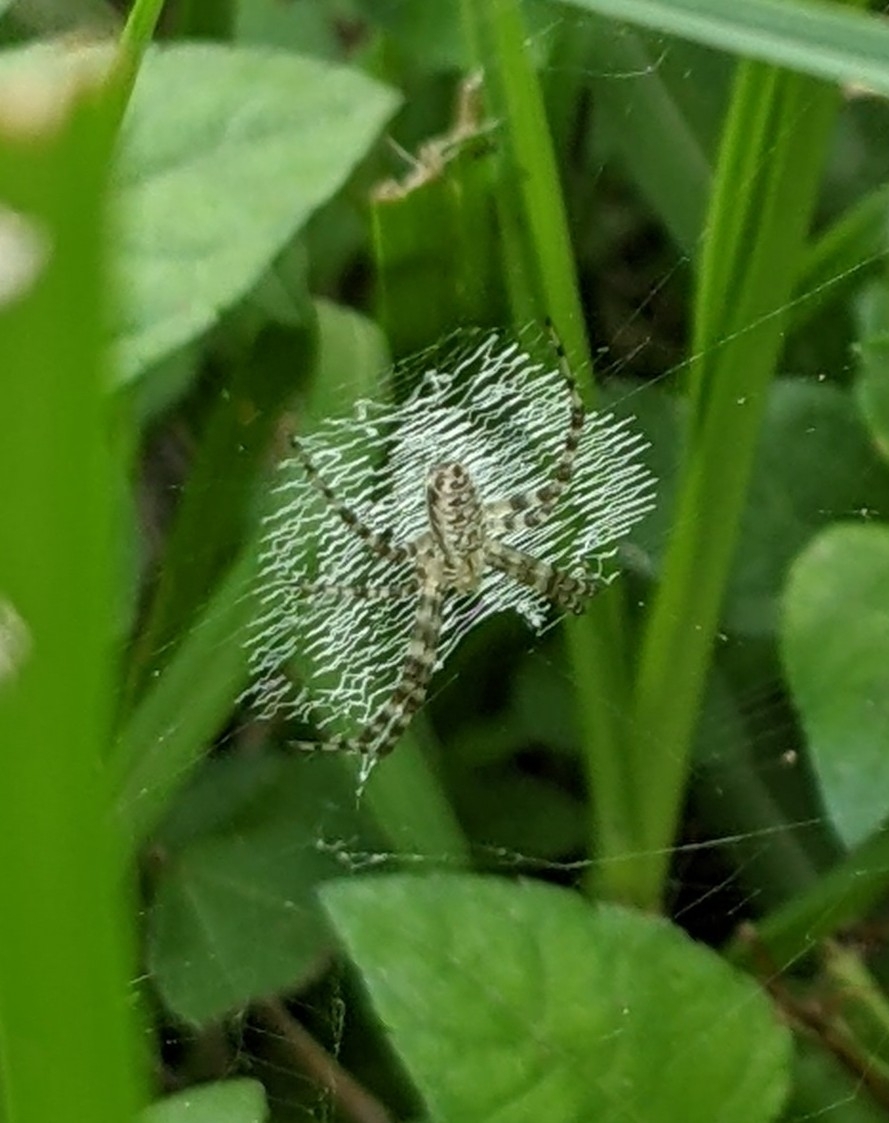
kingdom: Animalia
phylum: Arthropoda
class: Arachnida
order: Araneae
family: Araneidae
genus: Argiope
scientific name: Argiope aurantia
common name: Orb weavers
